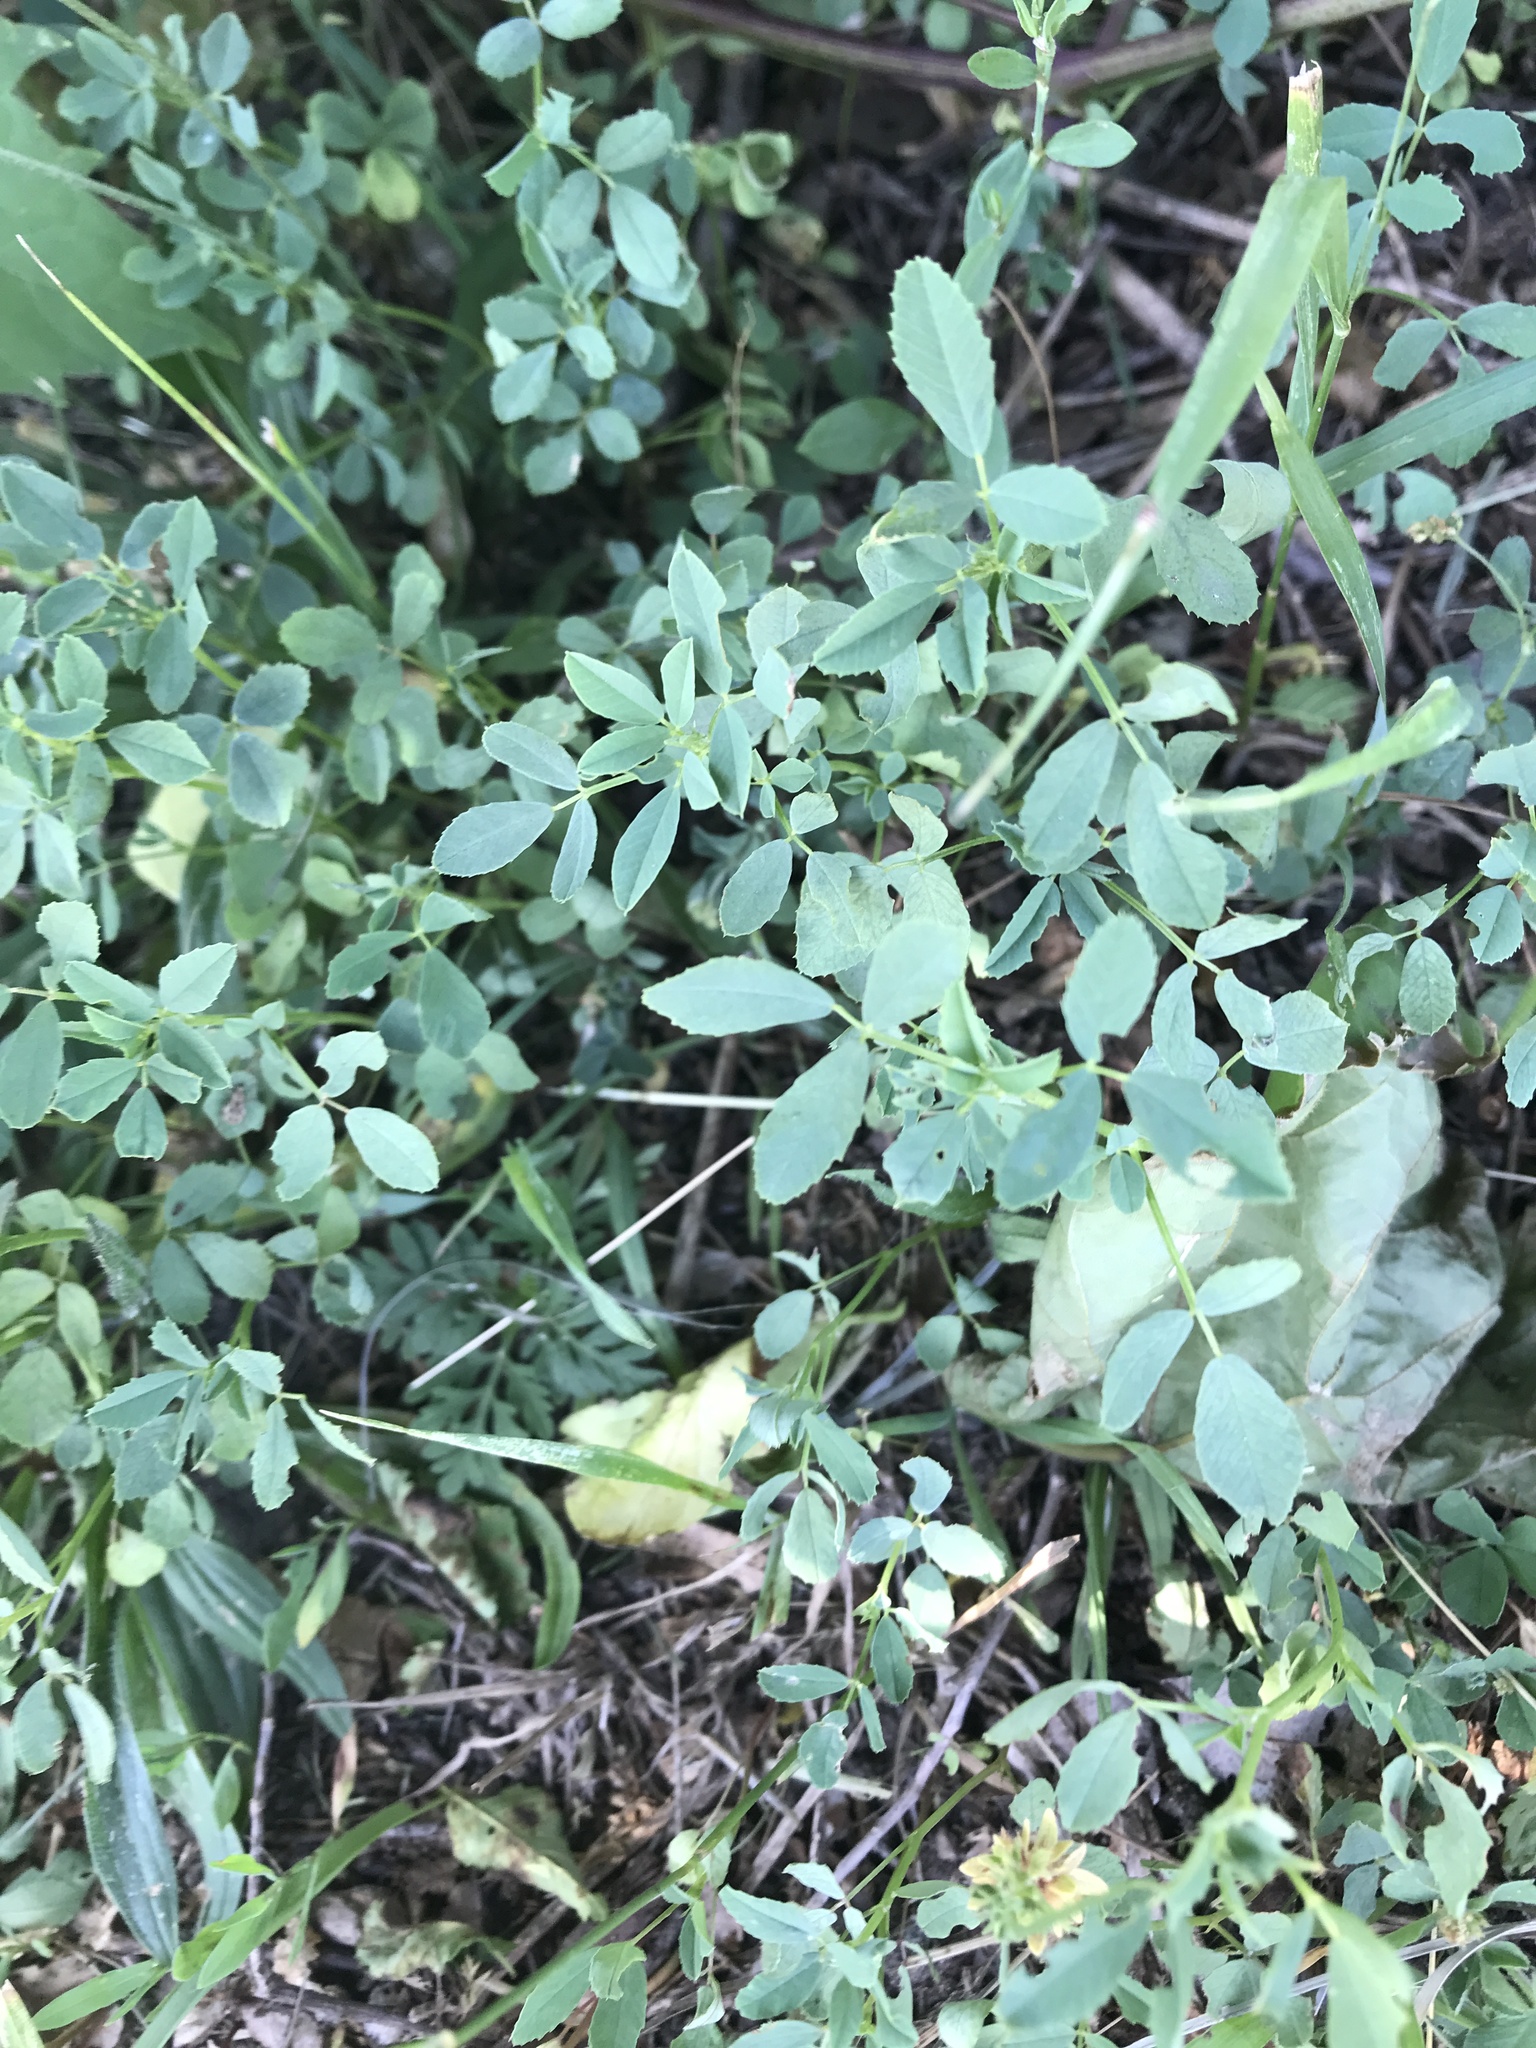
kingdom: Plantae
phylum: Tracheophyta
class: Magnoliopsida
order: Fabales
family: Fabaceae
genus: Melilotus
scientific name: Melilotus albus
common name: White melilot
